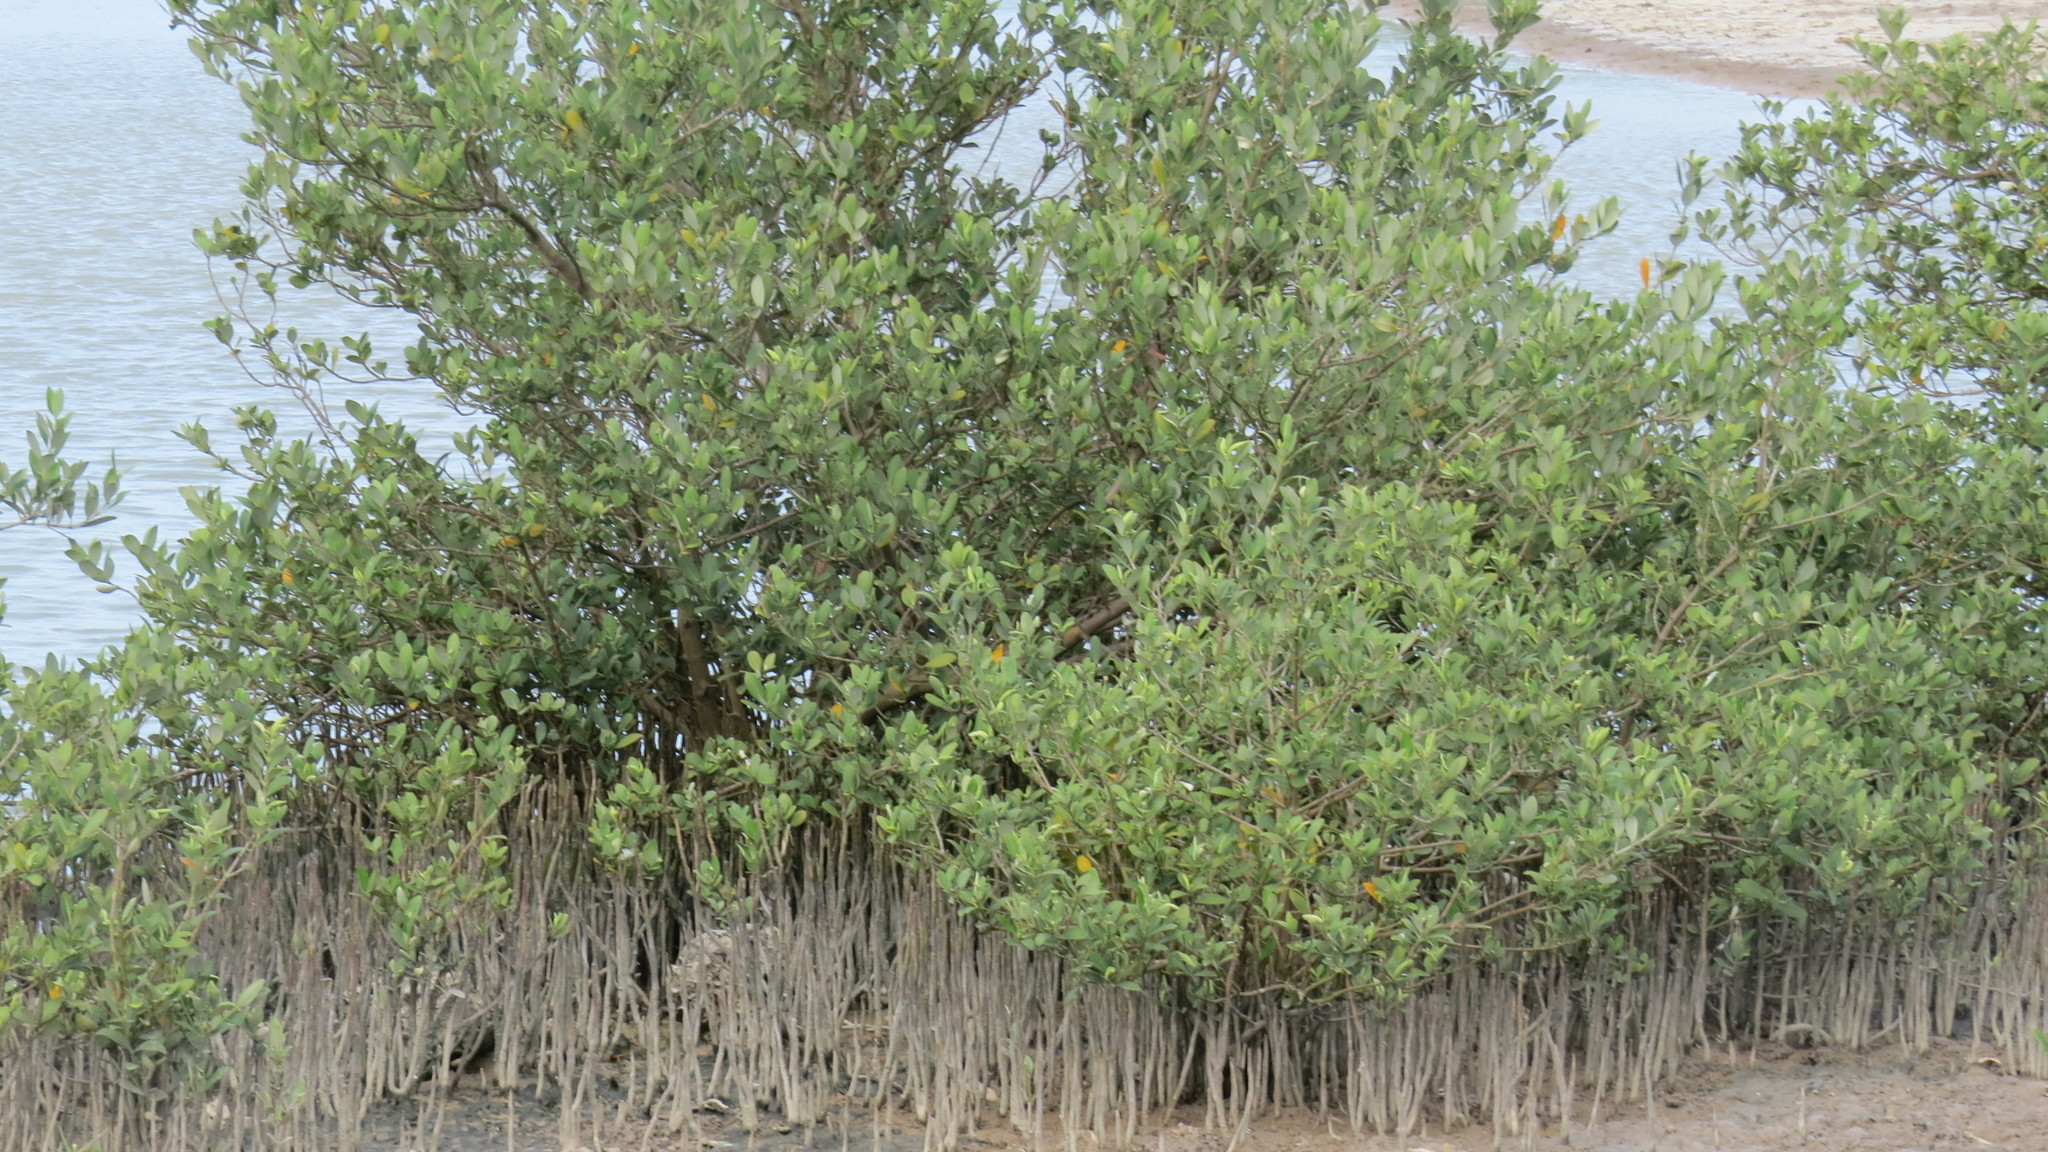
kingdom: Plantae
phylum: Tracheophyta
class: Magnoliopsida
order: Lamiales
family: Acanthaceae
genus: Avicennia
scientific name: Avicennia germinans
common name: Black mangrove
